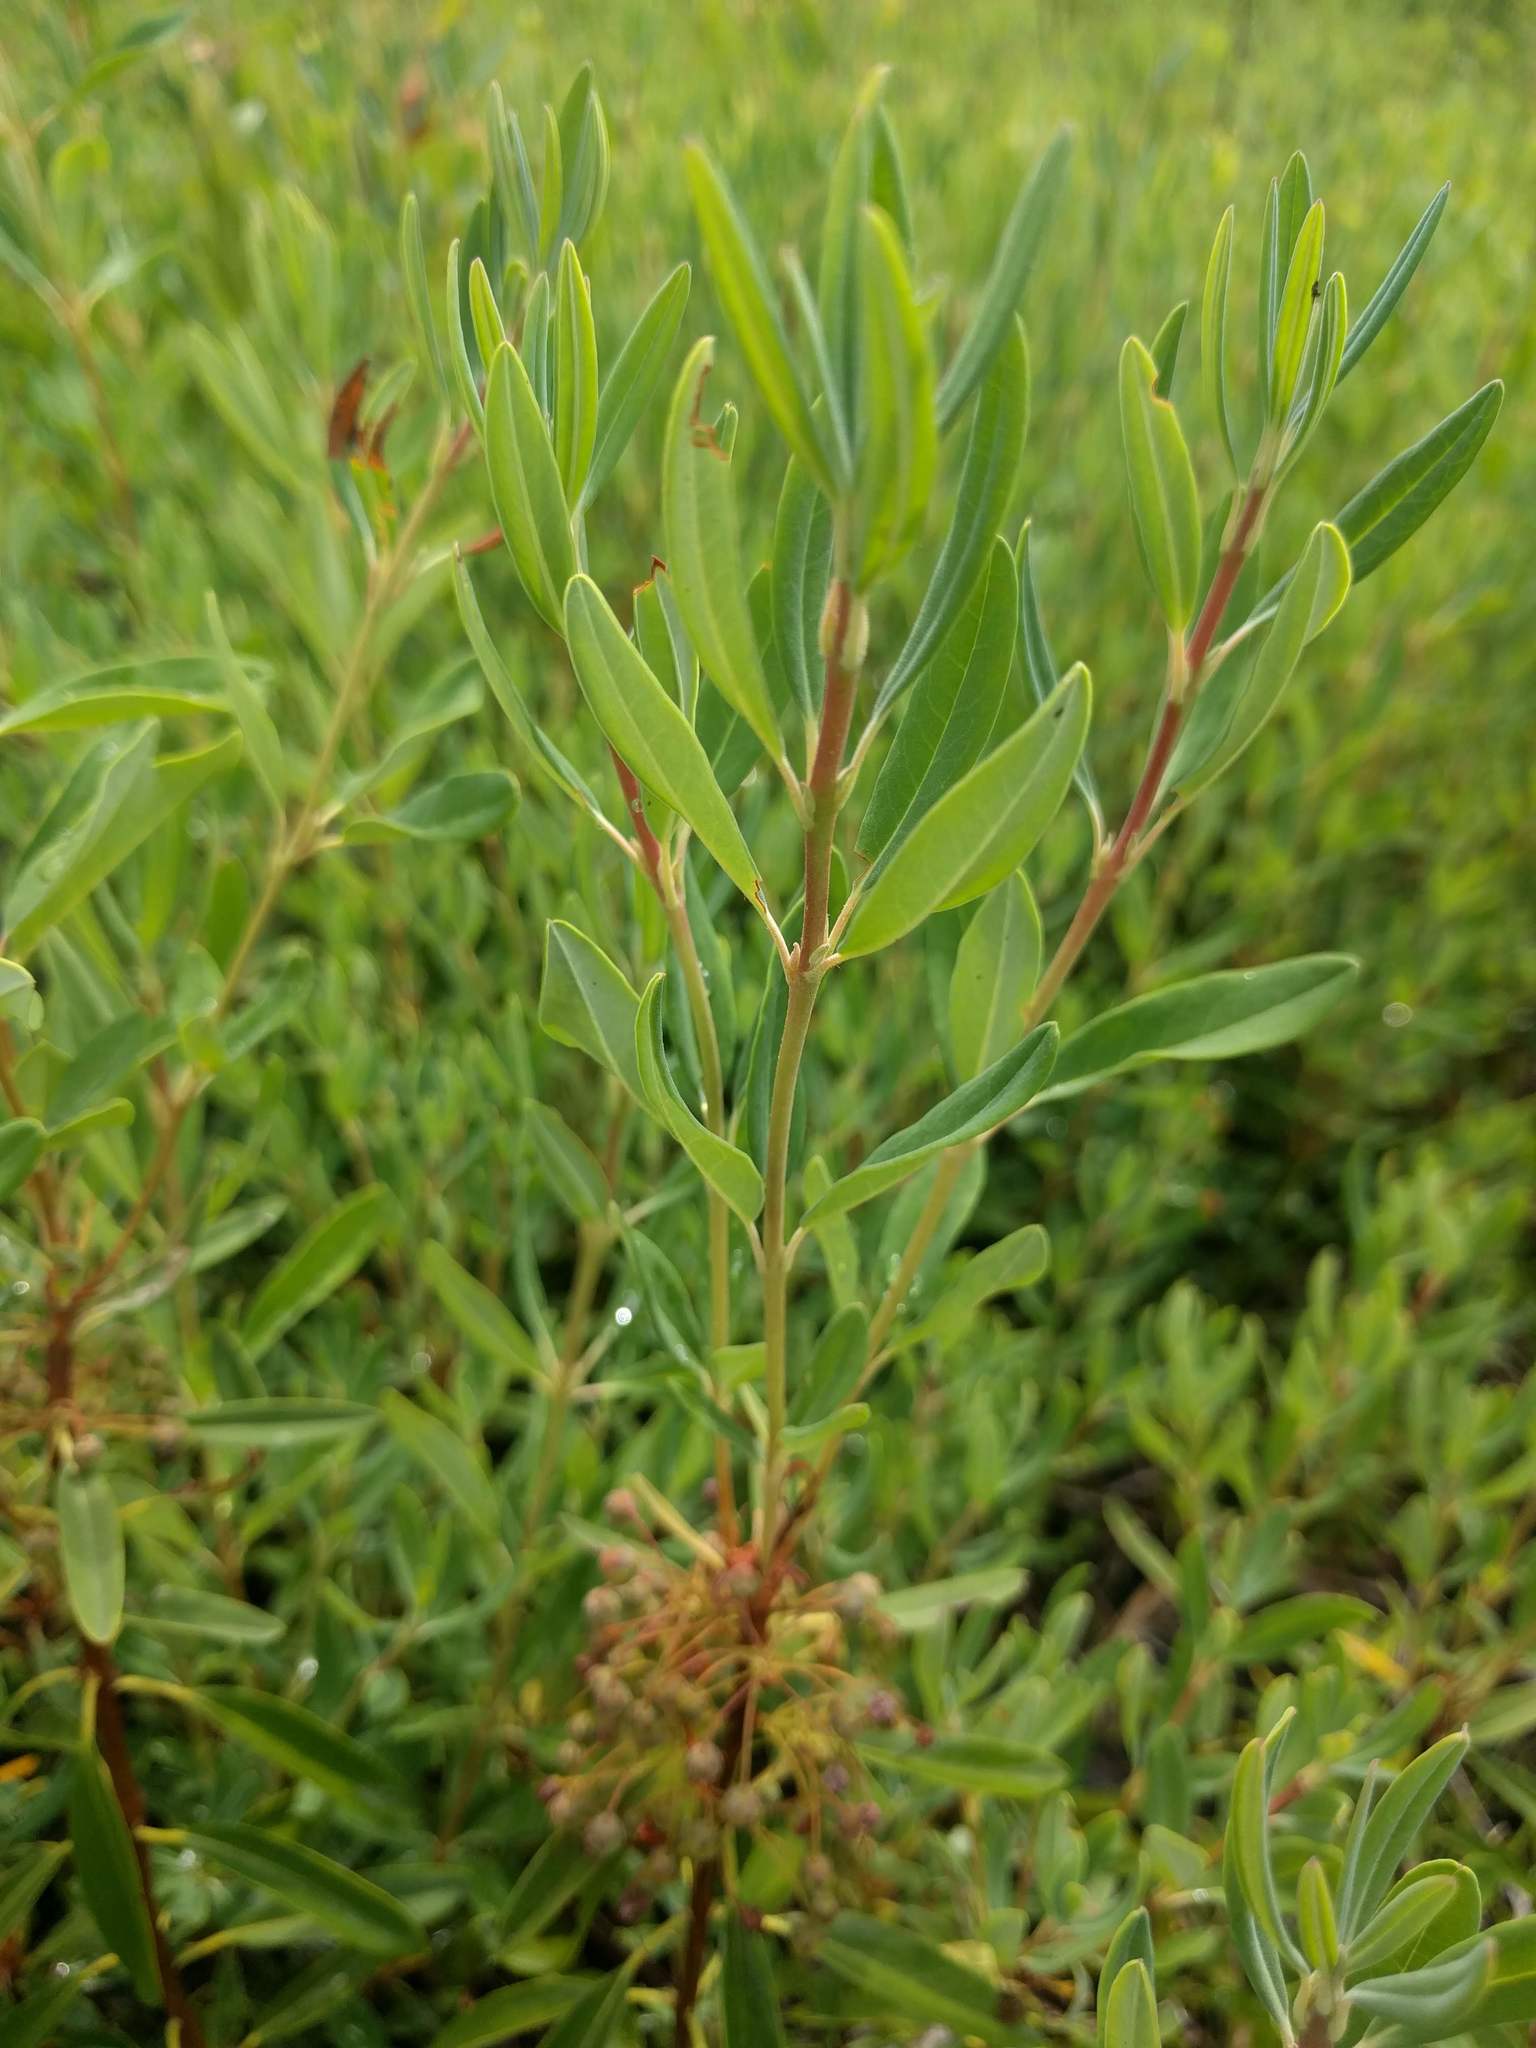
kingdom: Plantae
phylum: Tracheophyta
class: Magnoliopsida
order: Ericales
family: Ericaceae
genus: Lyonia
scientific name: Lyonia mariana
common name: Staggerbush
